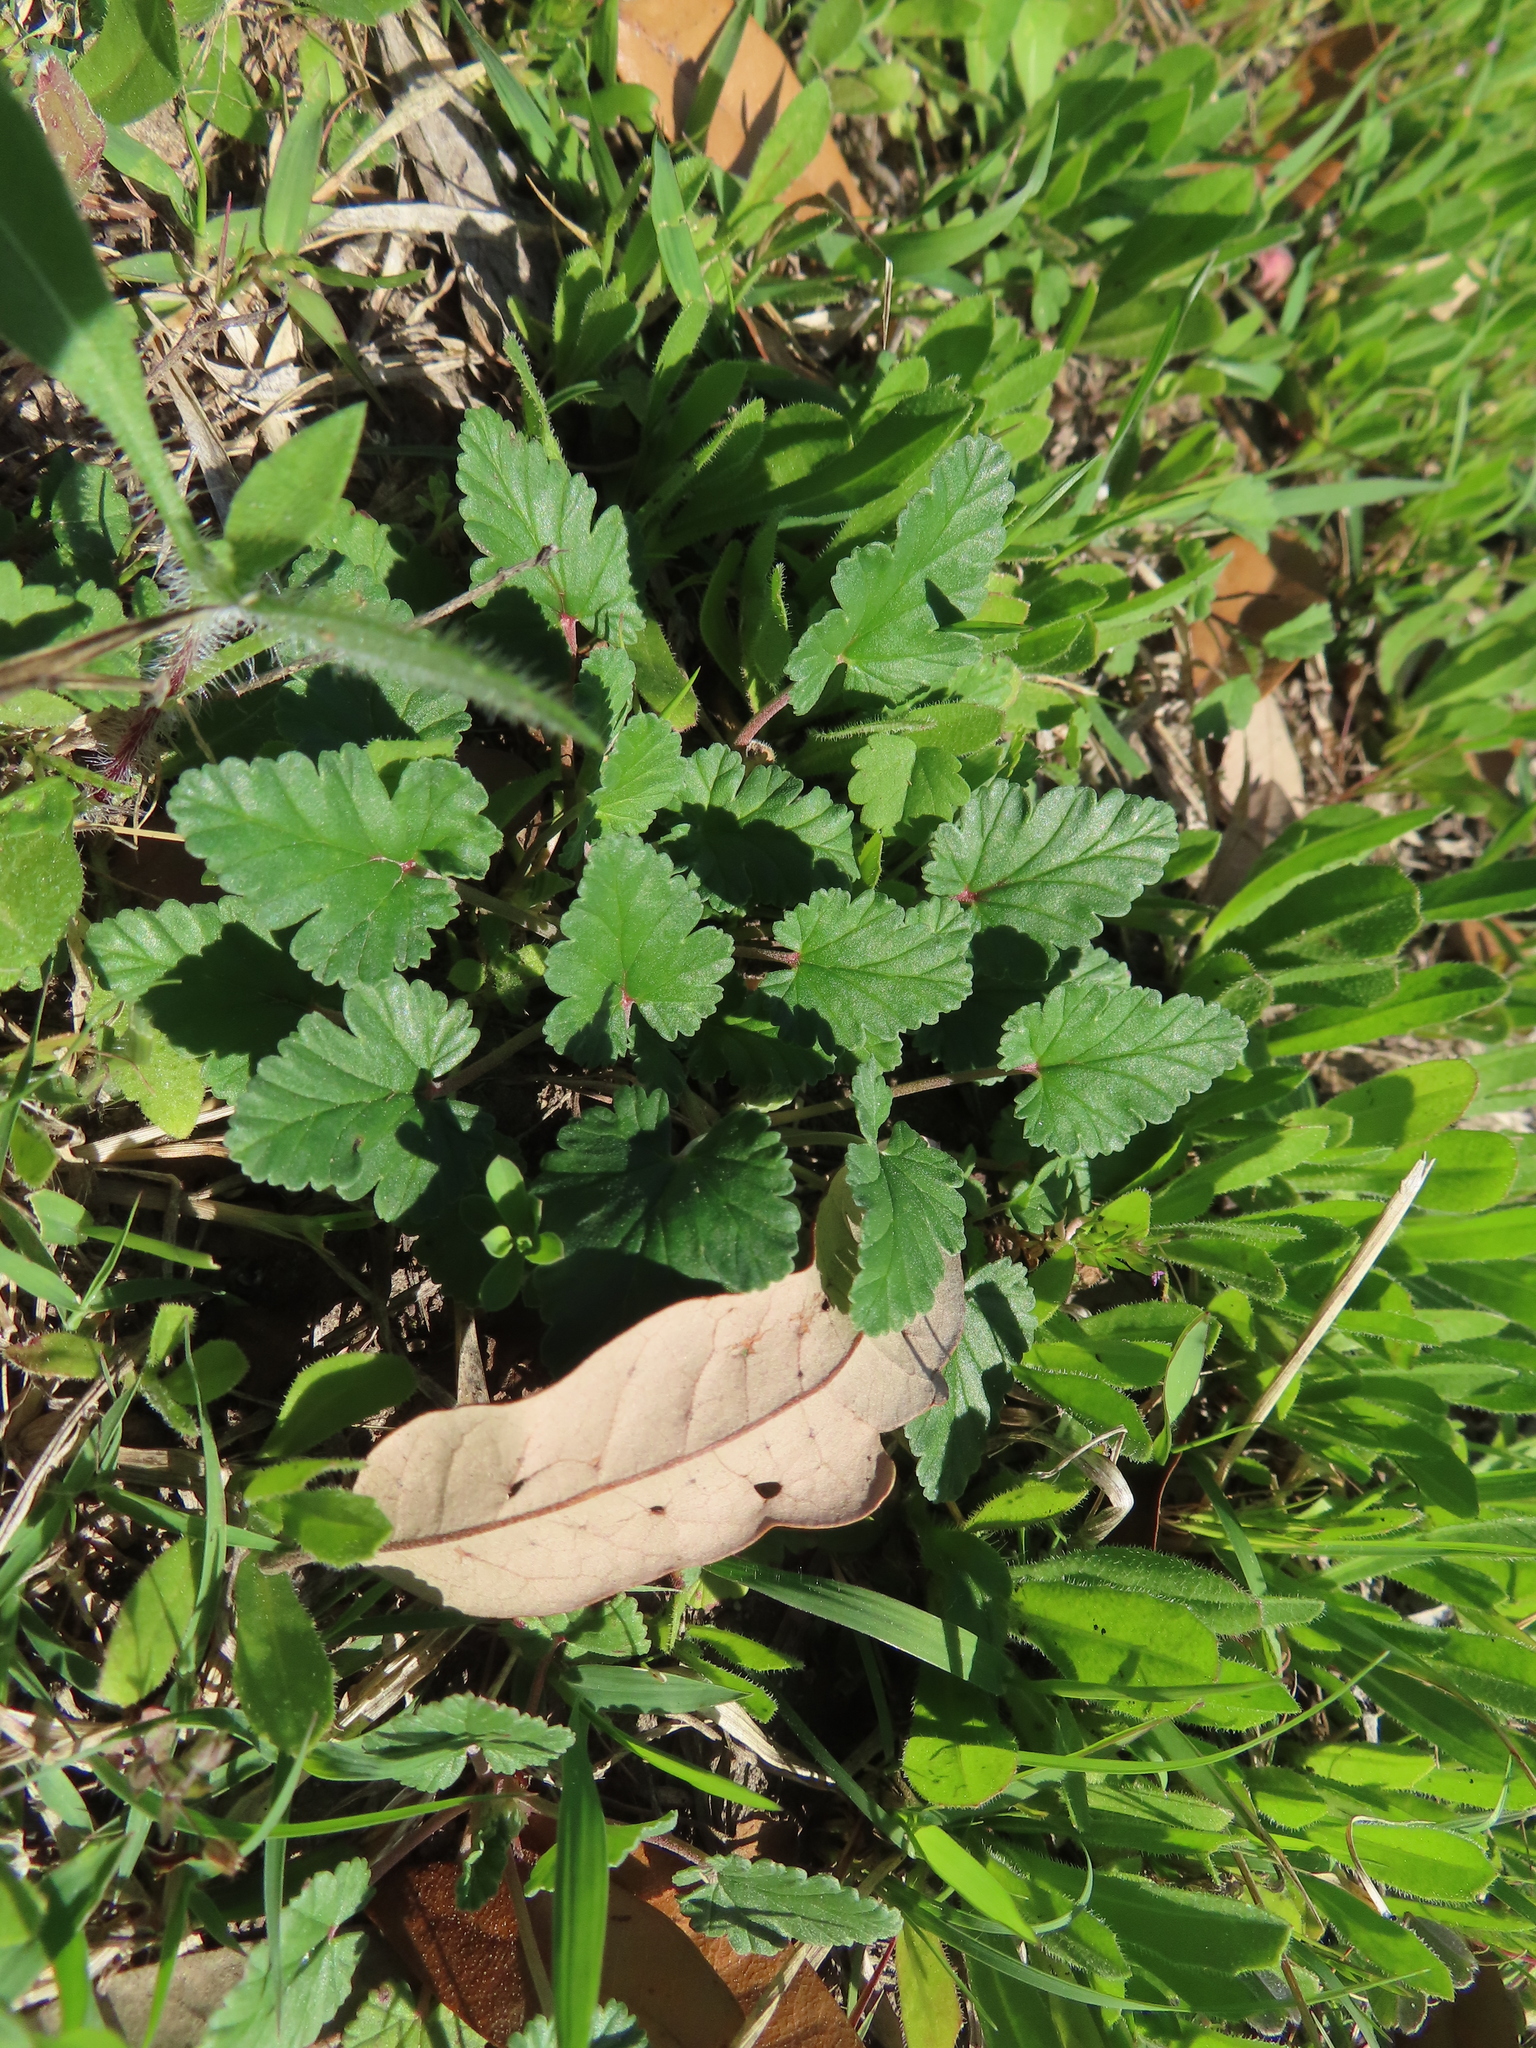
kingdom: Plantae
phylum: Tracheophyta
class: Magnoliopsida
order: Geraniales
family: Geraniaceae
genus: Erodium
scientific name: Erodium texanum
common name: Texas stork's-bill
